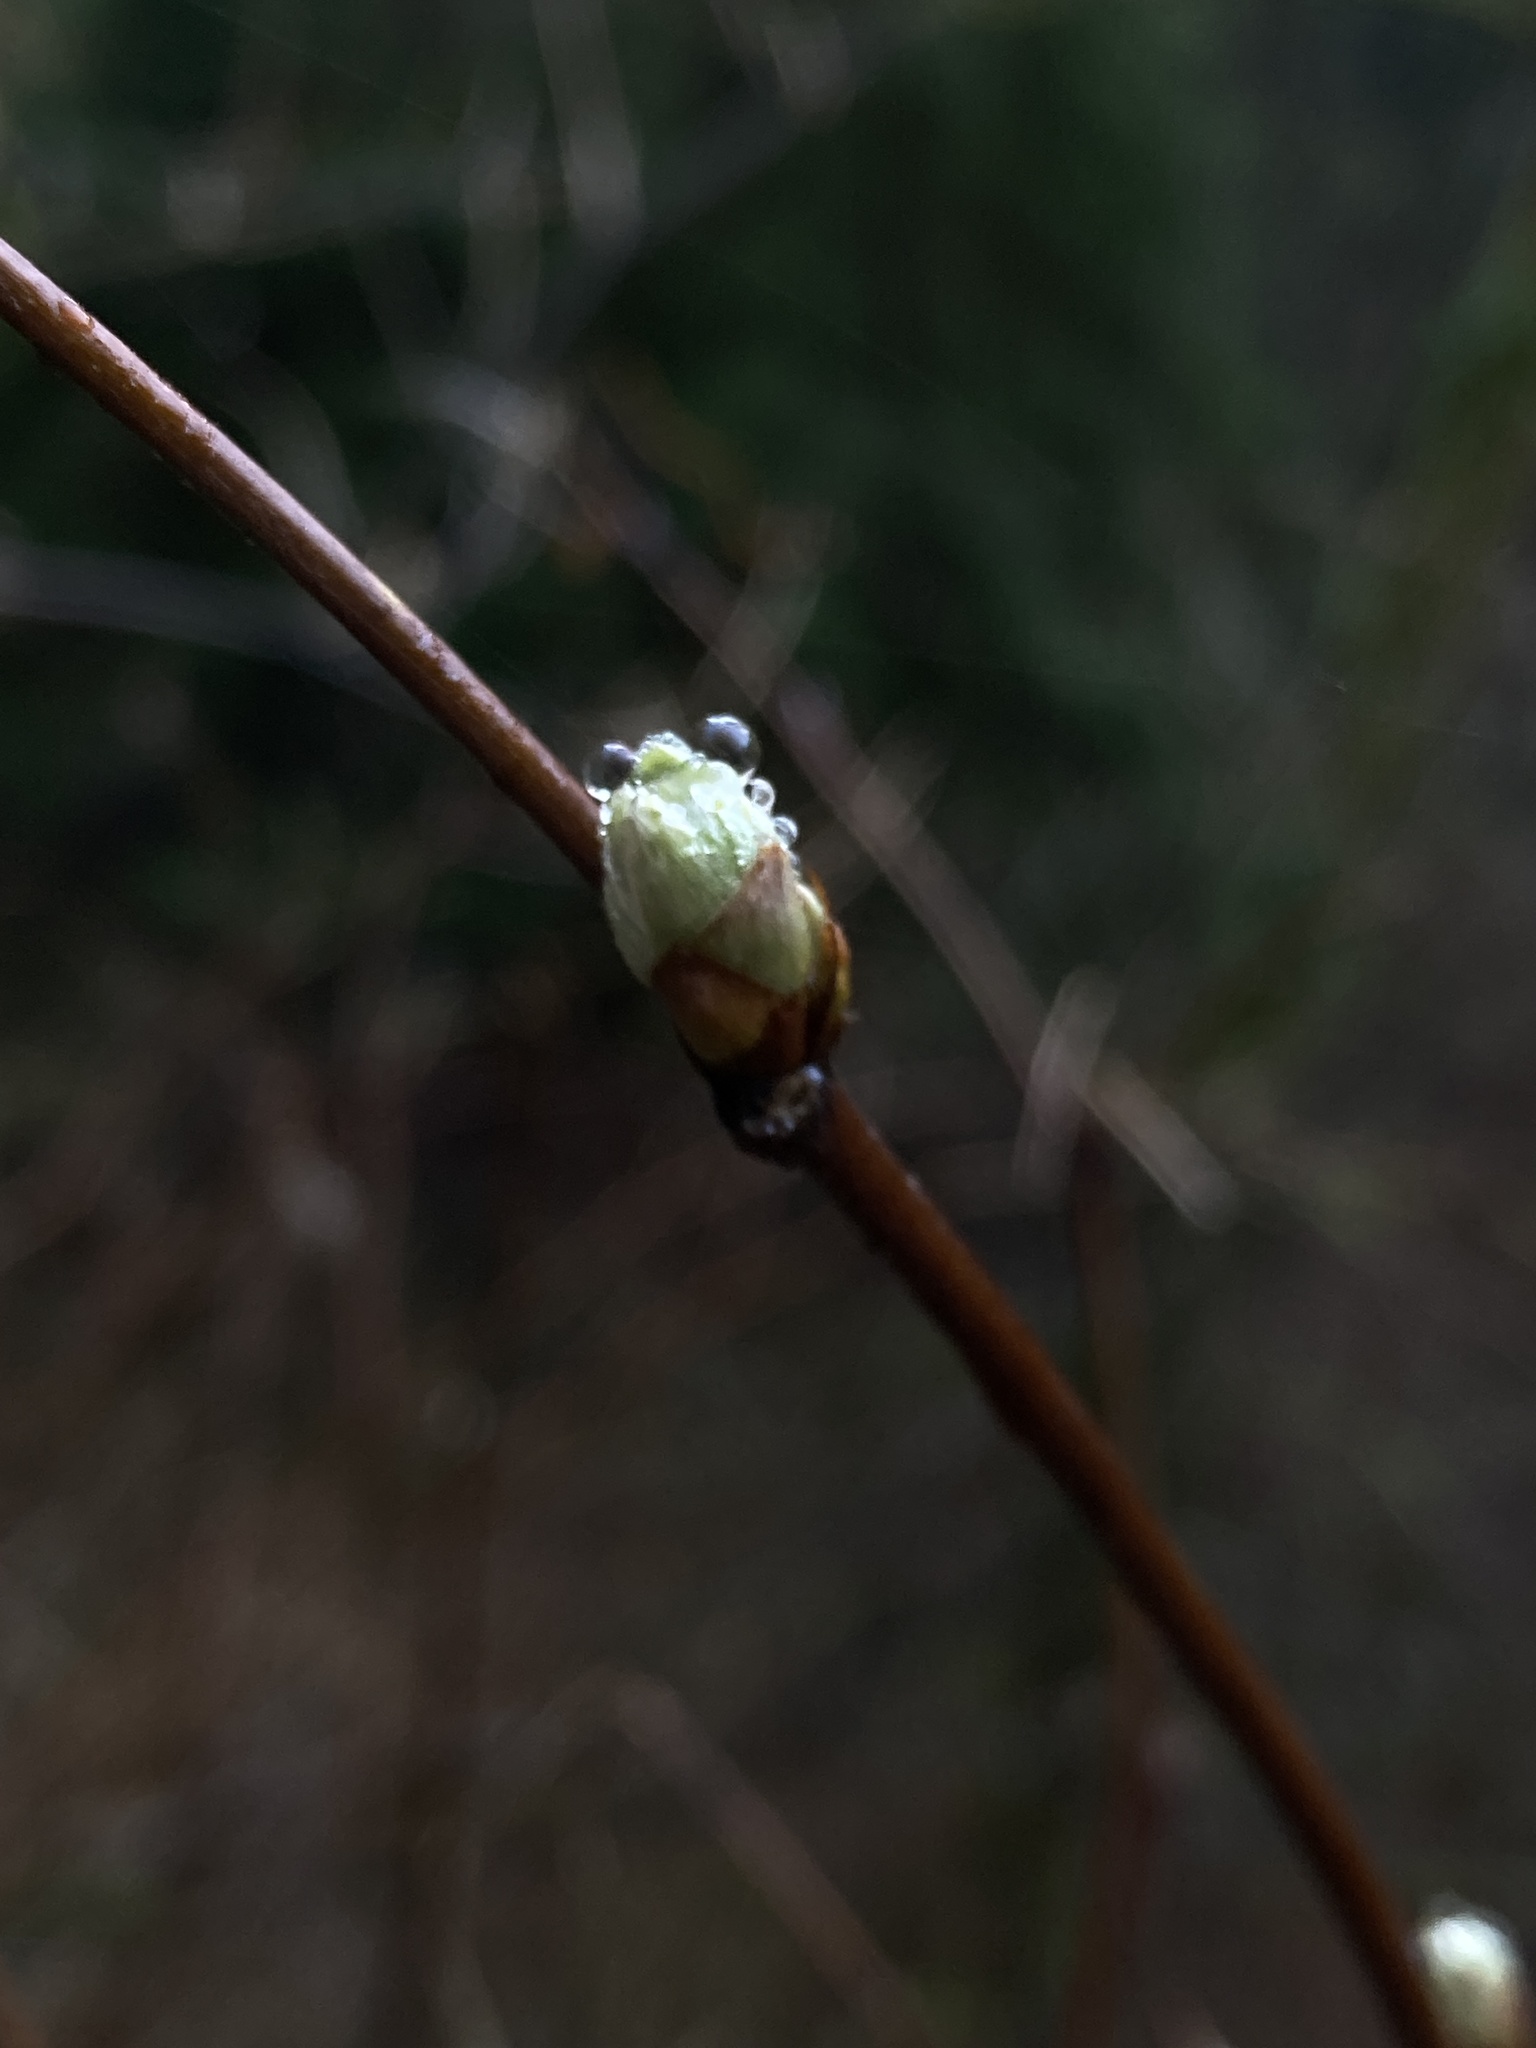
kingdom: Plantae
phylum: Tracheophyta
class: Magnoliopsida
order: Rosales
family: Rosaceae
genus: Rubus
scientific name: Rubus spectabilis
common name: Salmonberry
